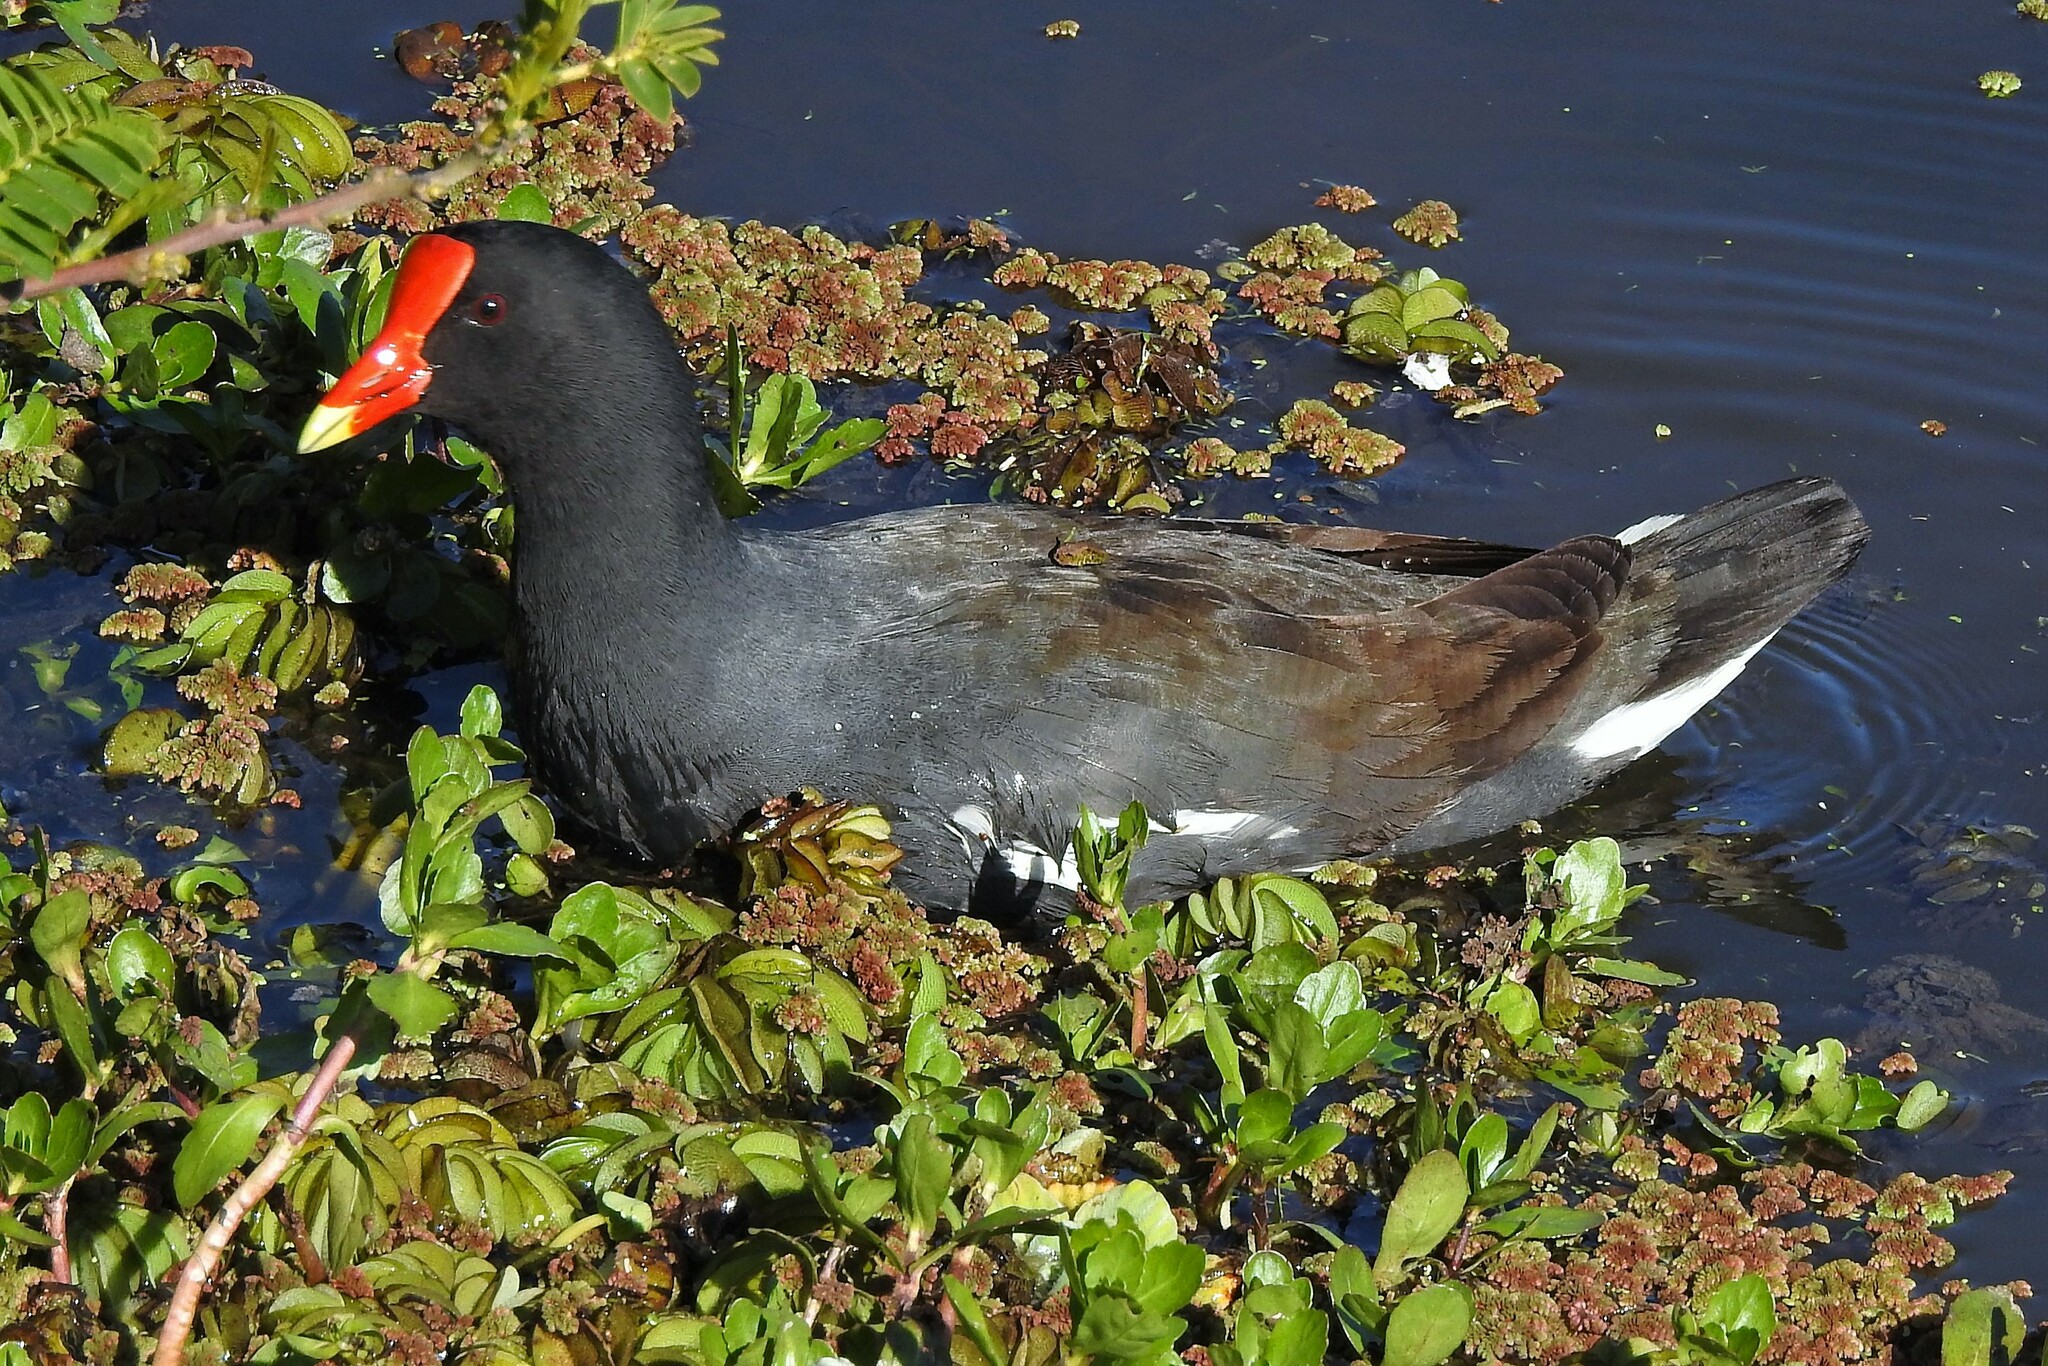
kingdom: Animalia
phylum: Chordata
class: Aves
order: Gruiformes
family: Rallidae
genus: Gallinula
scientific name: Gallinula chloropus
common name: Common moorhen
